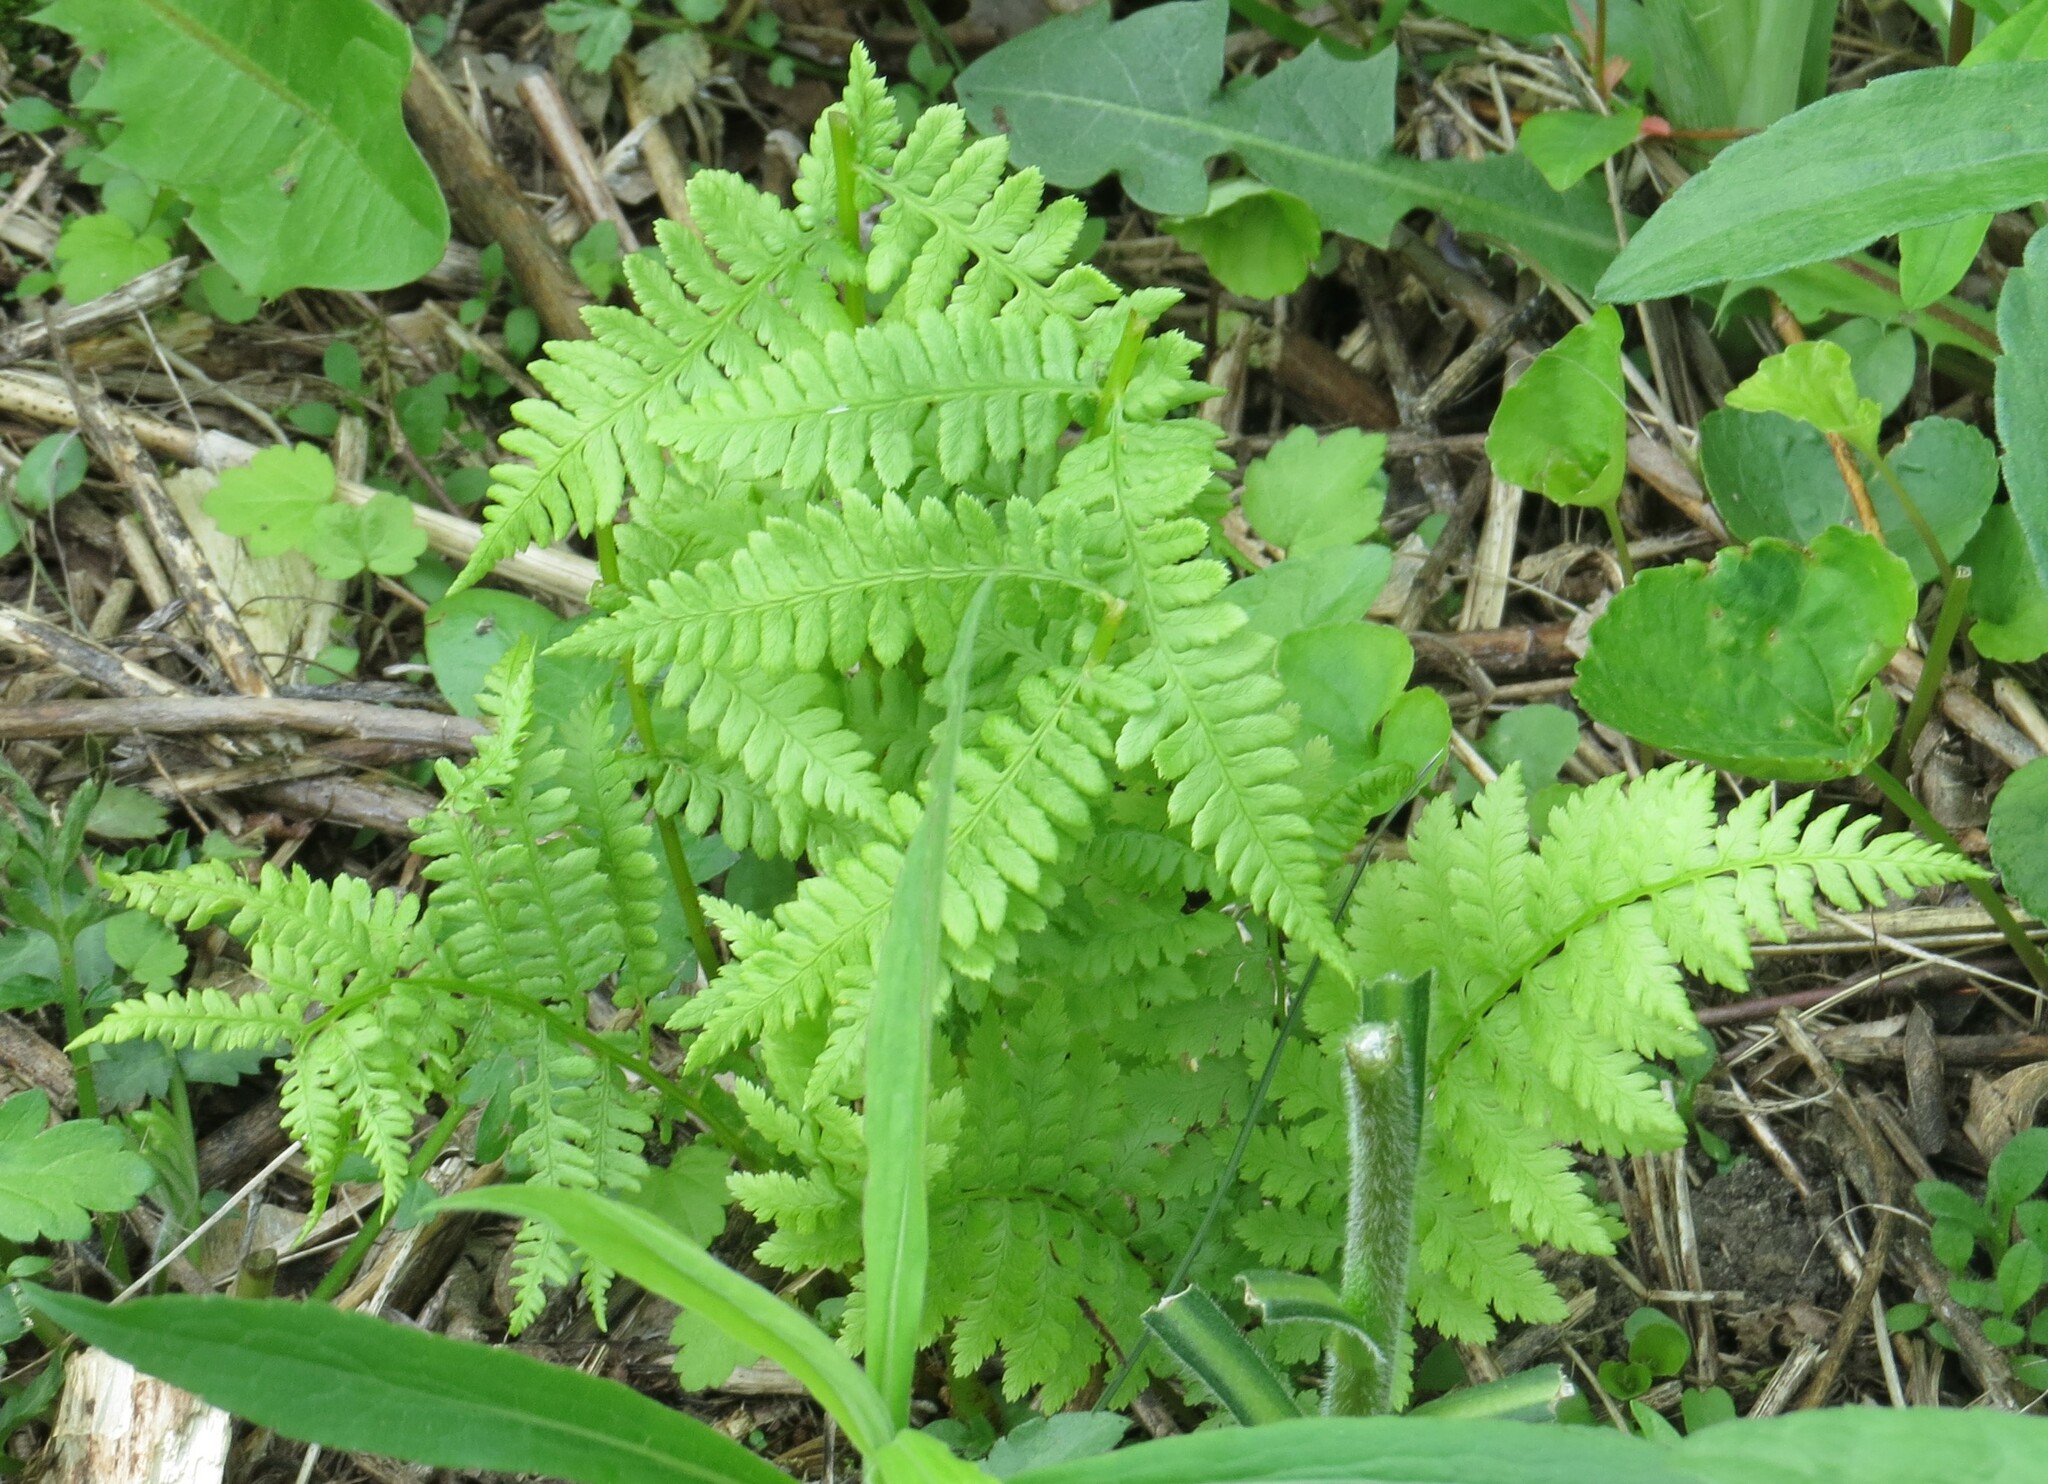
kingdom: Plantae
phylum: Tracheophyta
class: Polypodiopsida
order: Polypodiales
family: Athyriaceae
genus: Athyrium
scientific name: Athyrium angustum
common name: Northern lady fern
